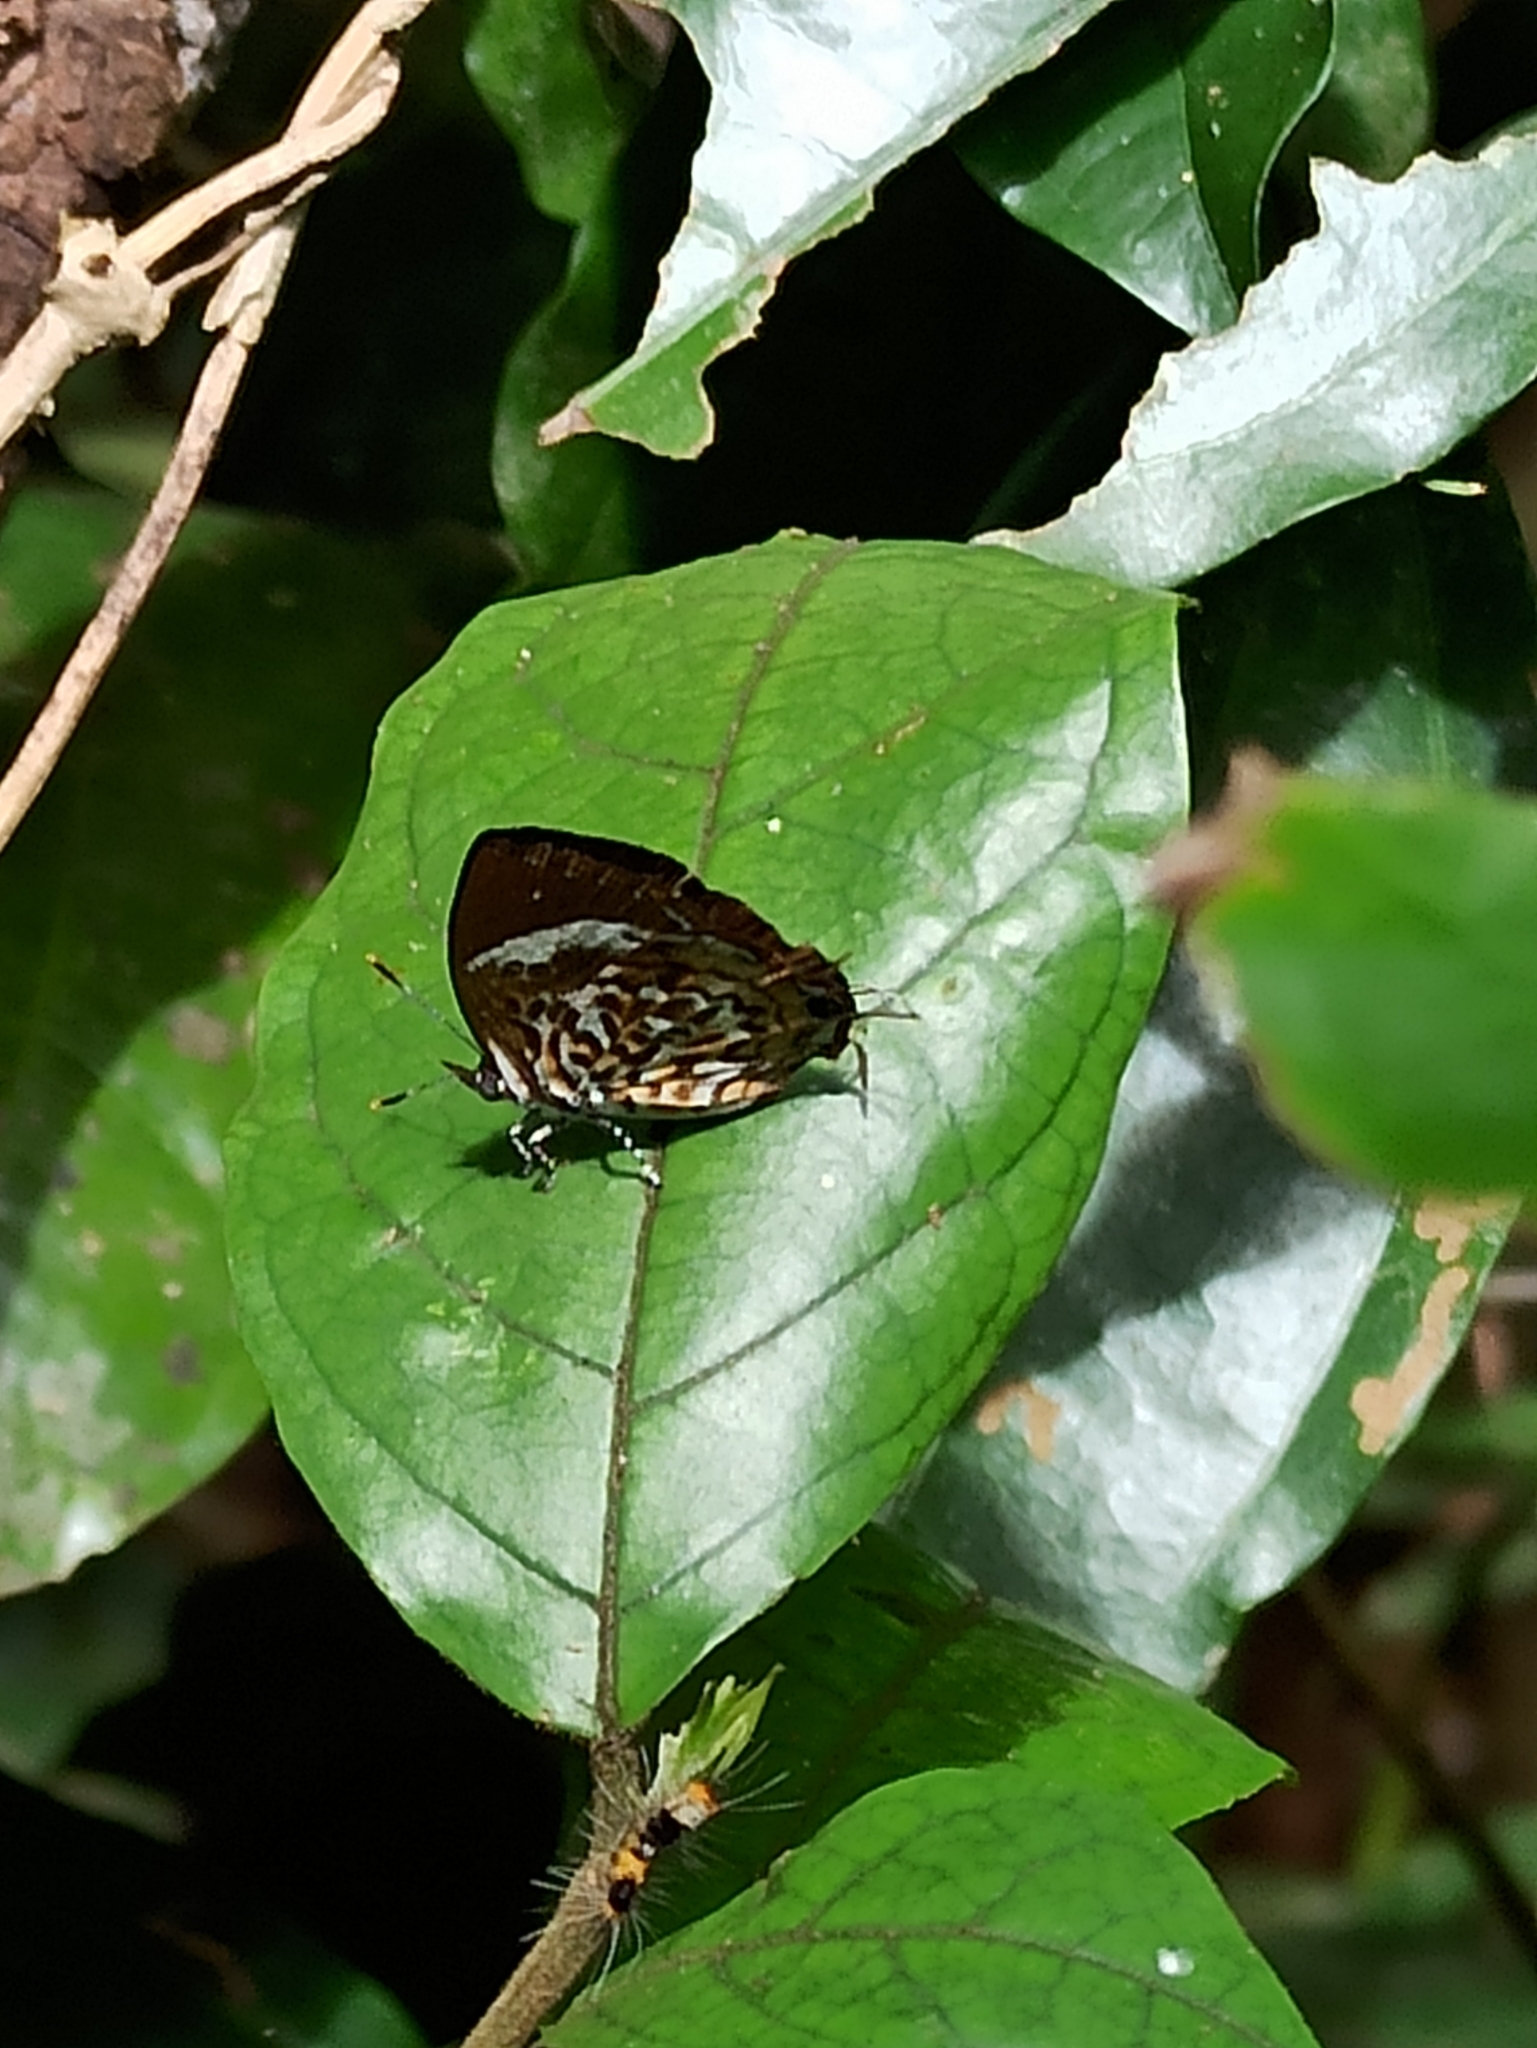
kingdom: Animalia
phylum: Arthropoda
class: Insecta
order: Lepidoptera
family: Lycaenidae
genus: Rathinda
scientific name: Rathinda amor
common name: Monkey puzzle
